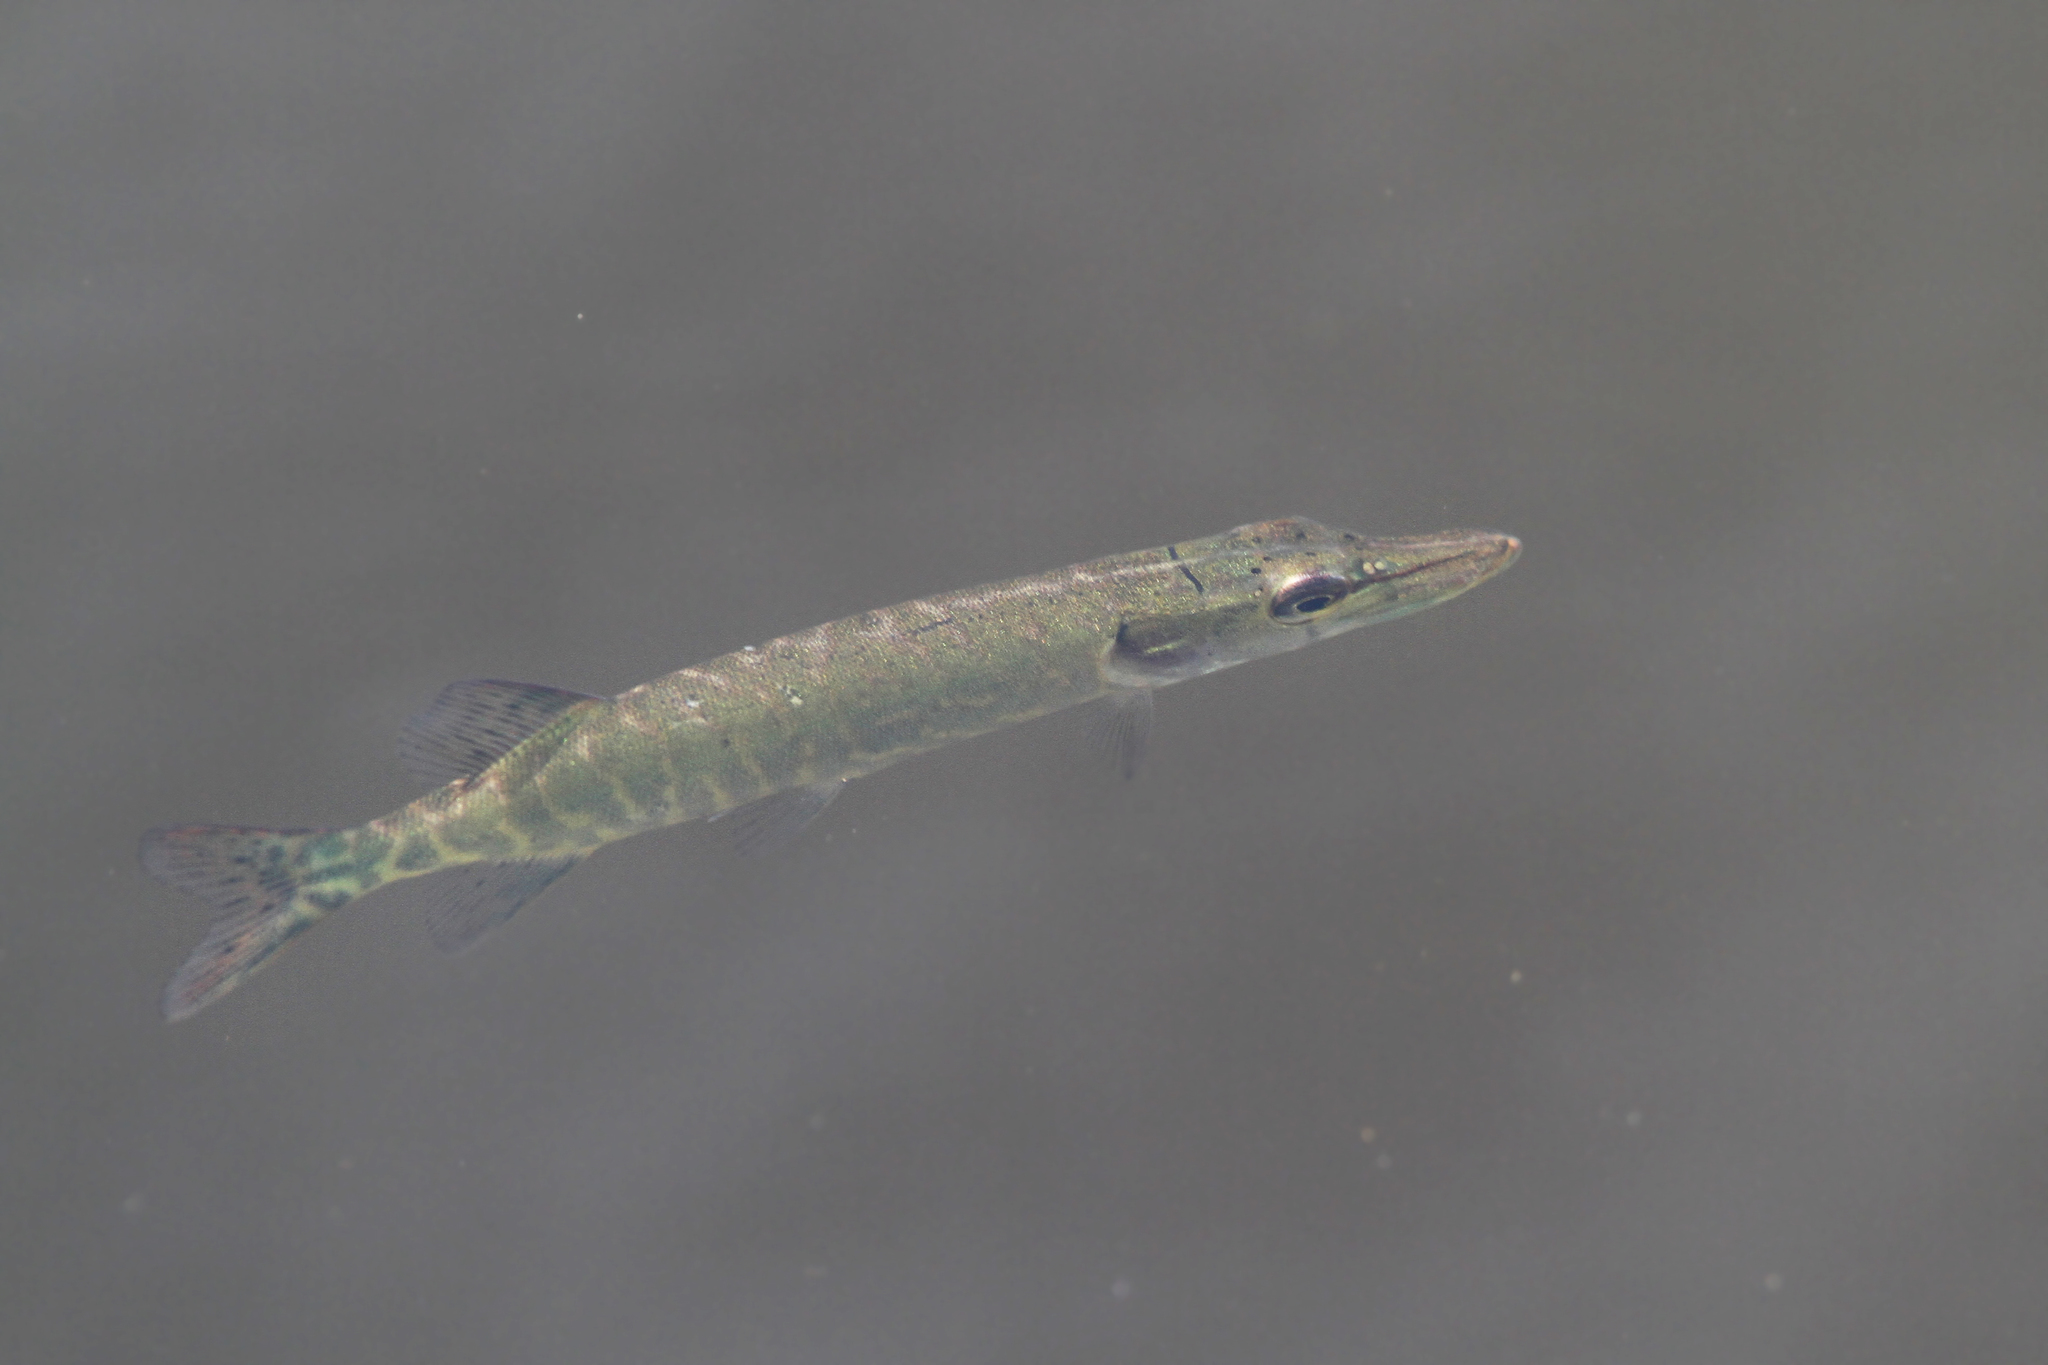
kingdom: Animalia
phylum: Chordata
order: Esociformes
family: Esocidae
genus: Esox
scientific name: Esox lucius
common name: Northern pike
